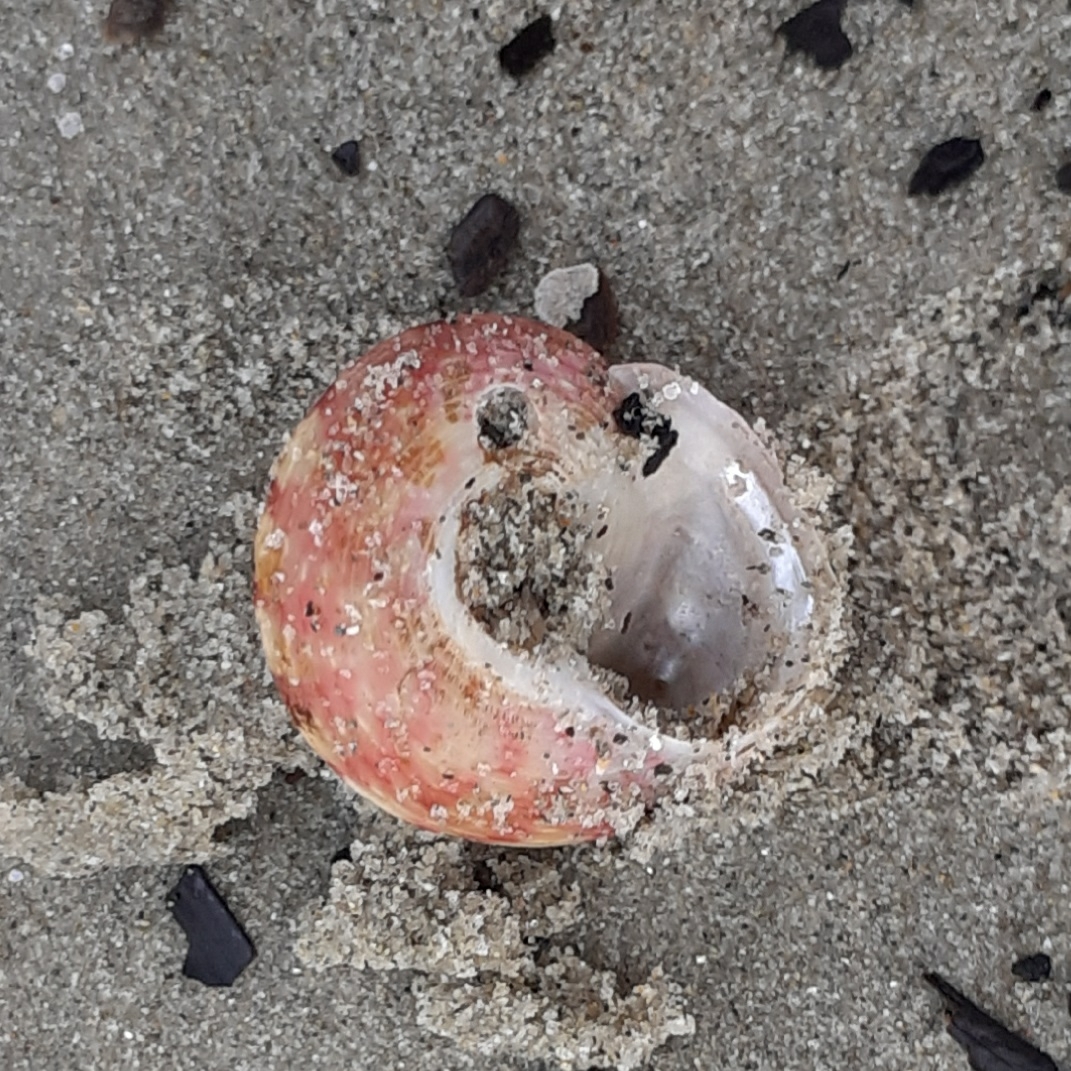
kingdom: Animalia
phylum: Mollusca
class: Gastropoda
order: Trochida
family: Trochidae
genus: Gibbula
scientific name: Gibbula magus
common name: Turban top shell
